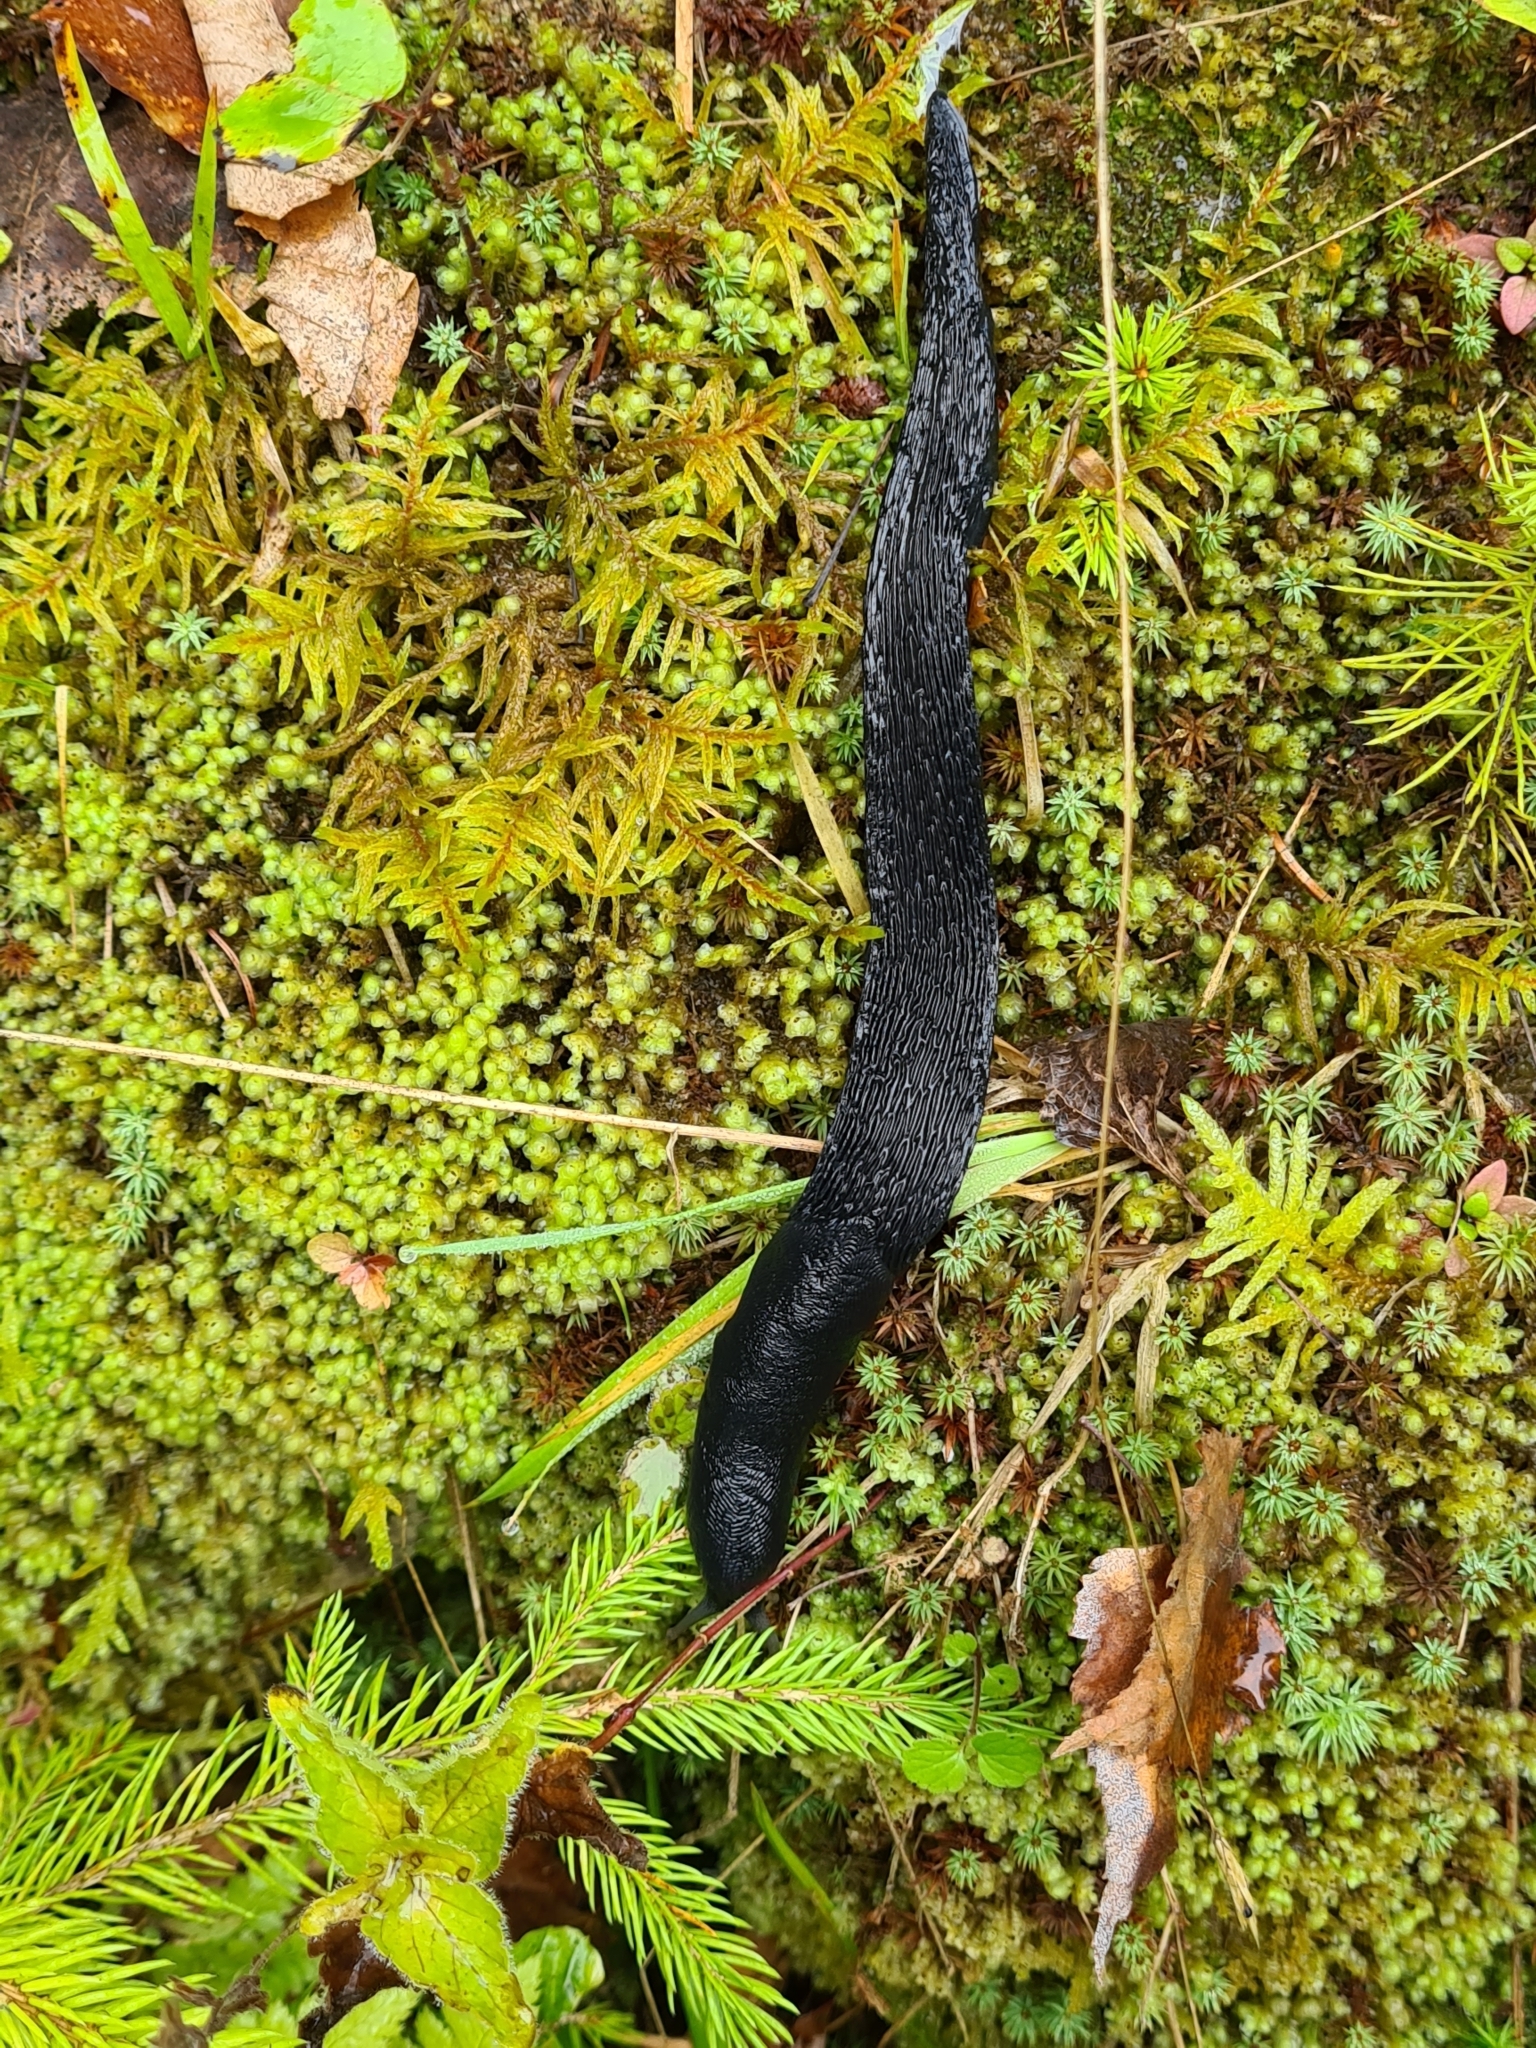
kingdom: Animalia
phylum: Mollusca
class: Gastropoda
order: Stylommatophora
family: Limacidae
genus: Limax
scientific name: Limax cinereoniger
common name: Ash-black slug
